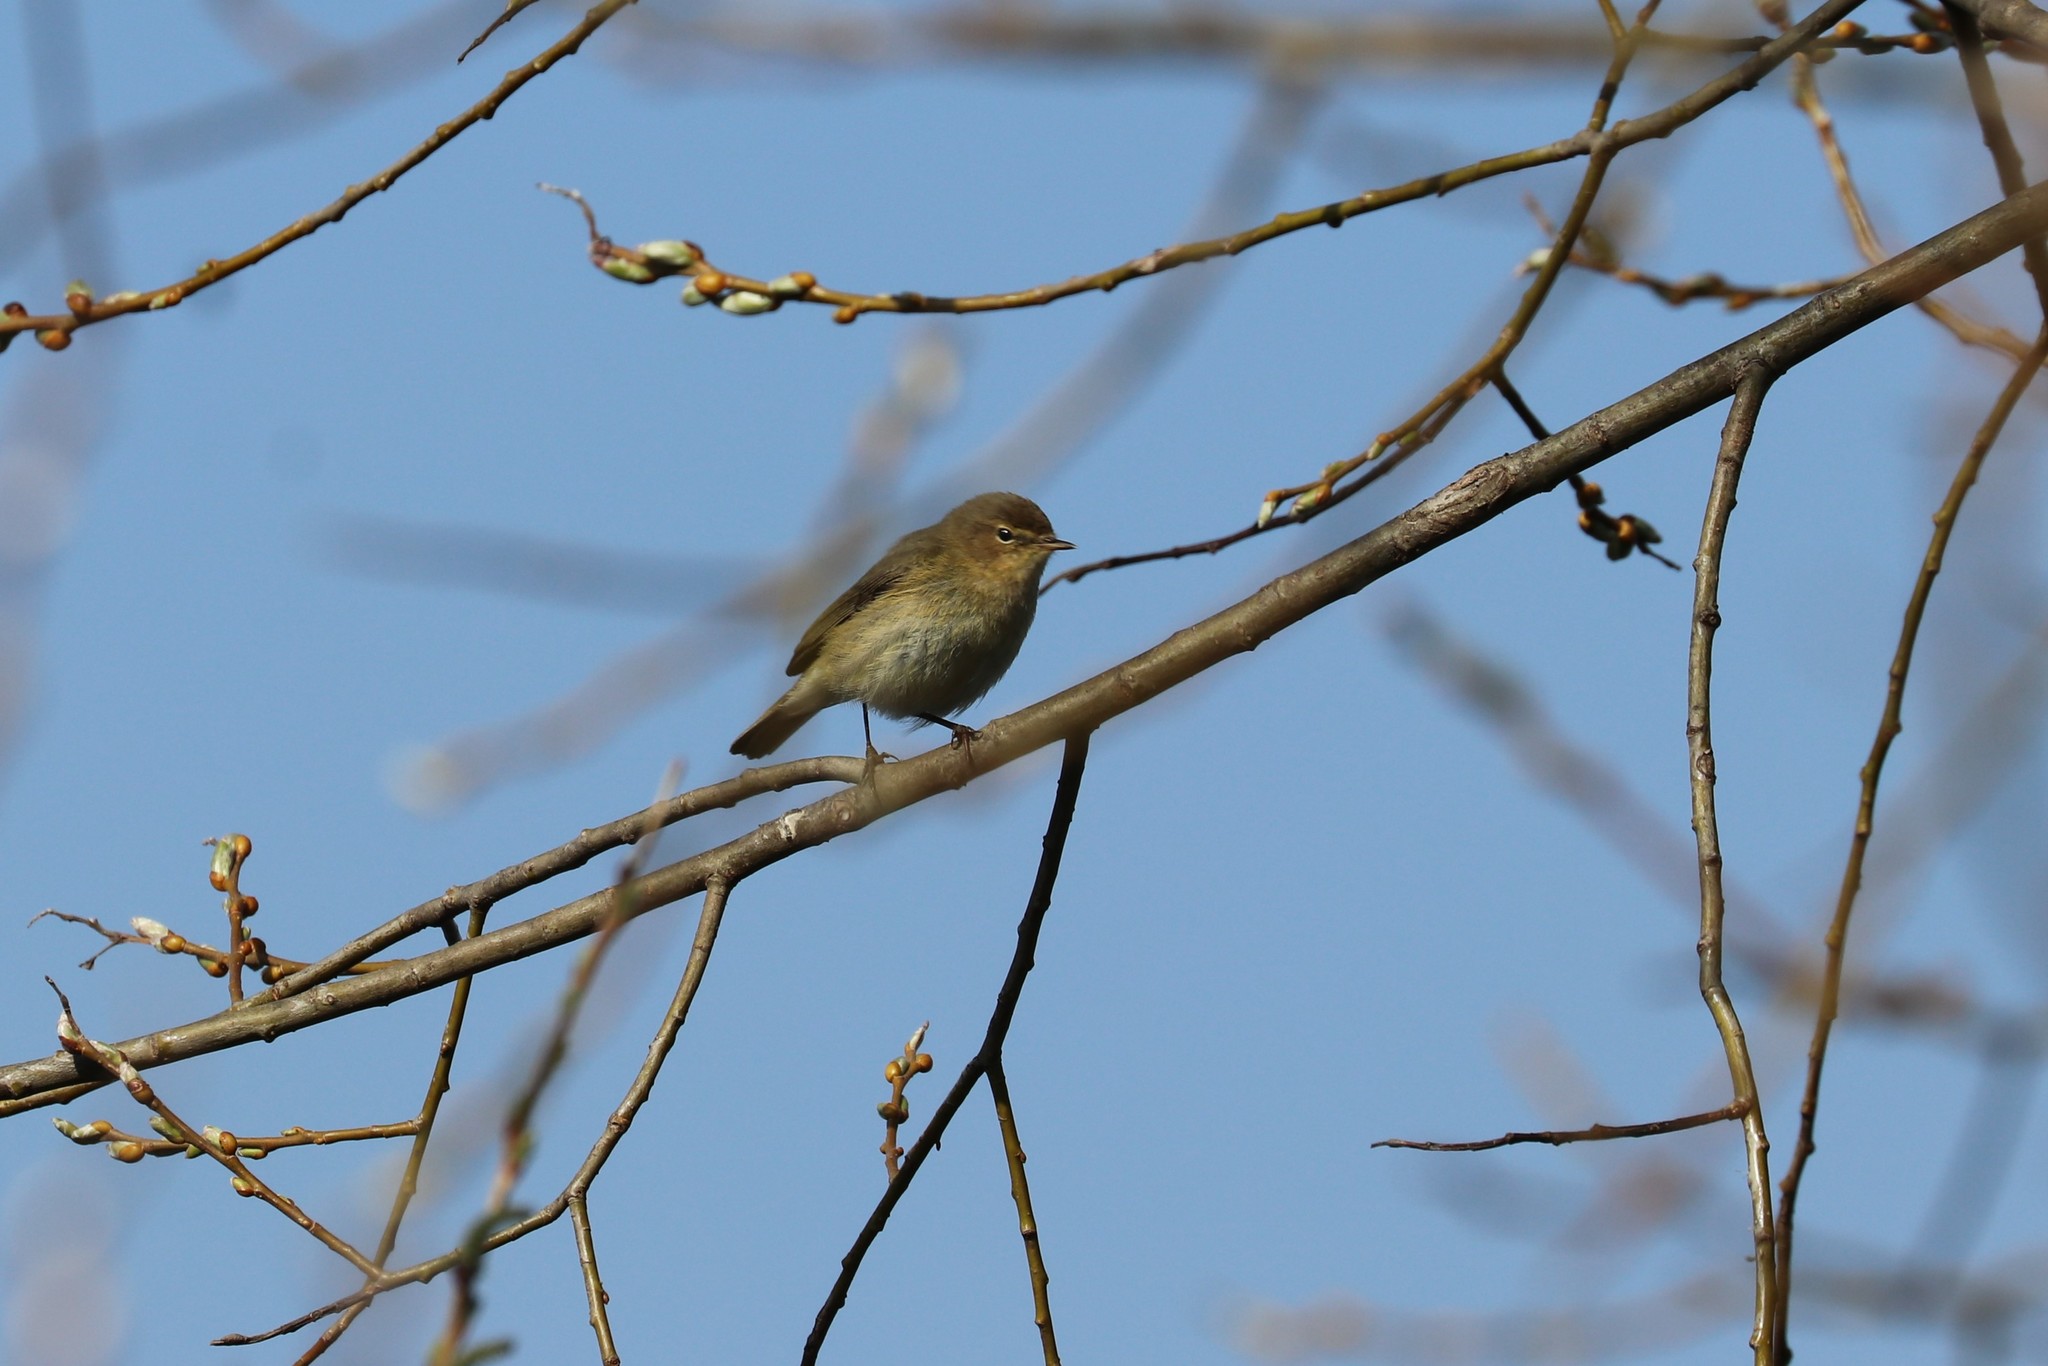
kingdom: Animalia
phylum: Chordata
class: Aves
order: Passeriformes
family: Phylloscopidae
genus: Phylloscopus
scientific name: Phylloscopus collybita
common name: Common chiffchaff
